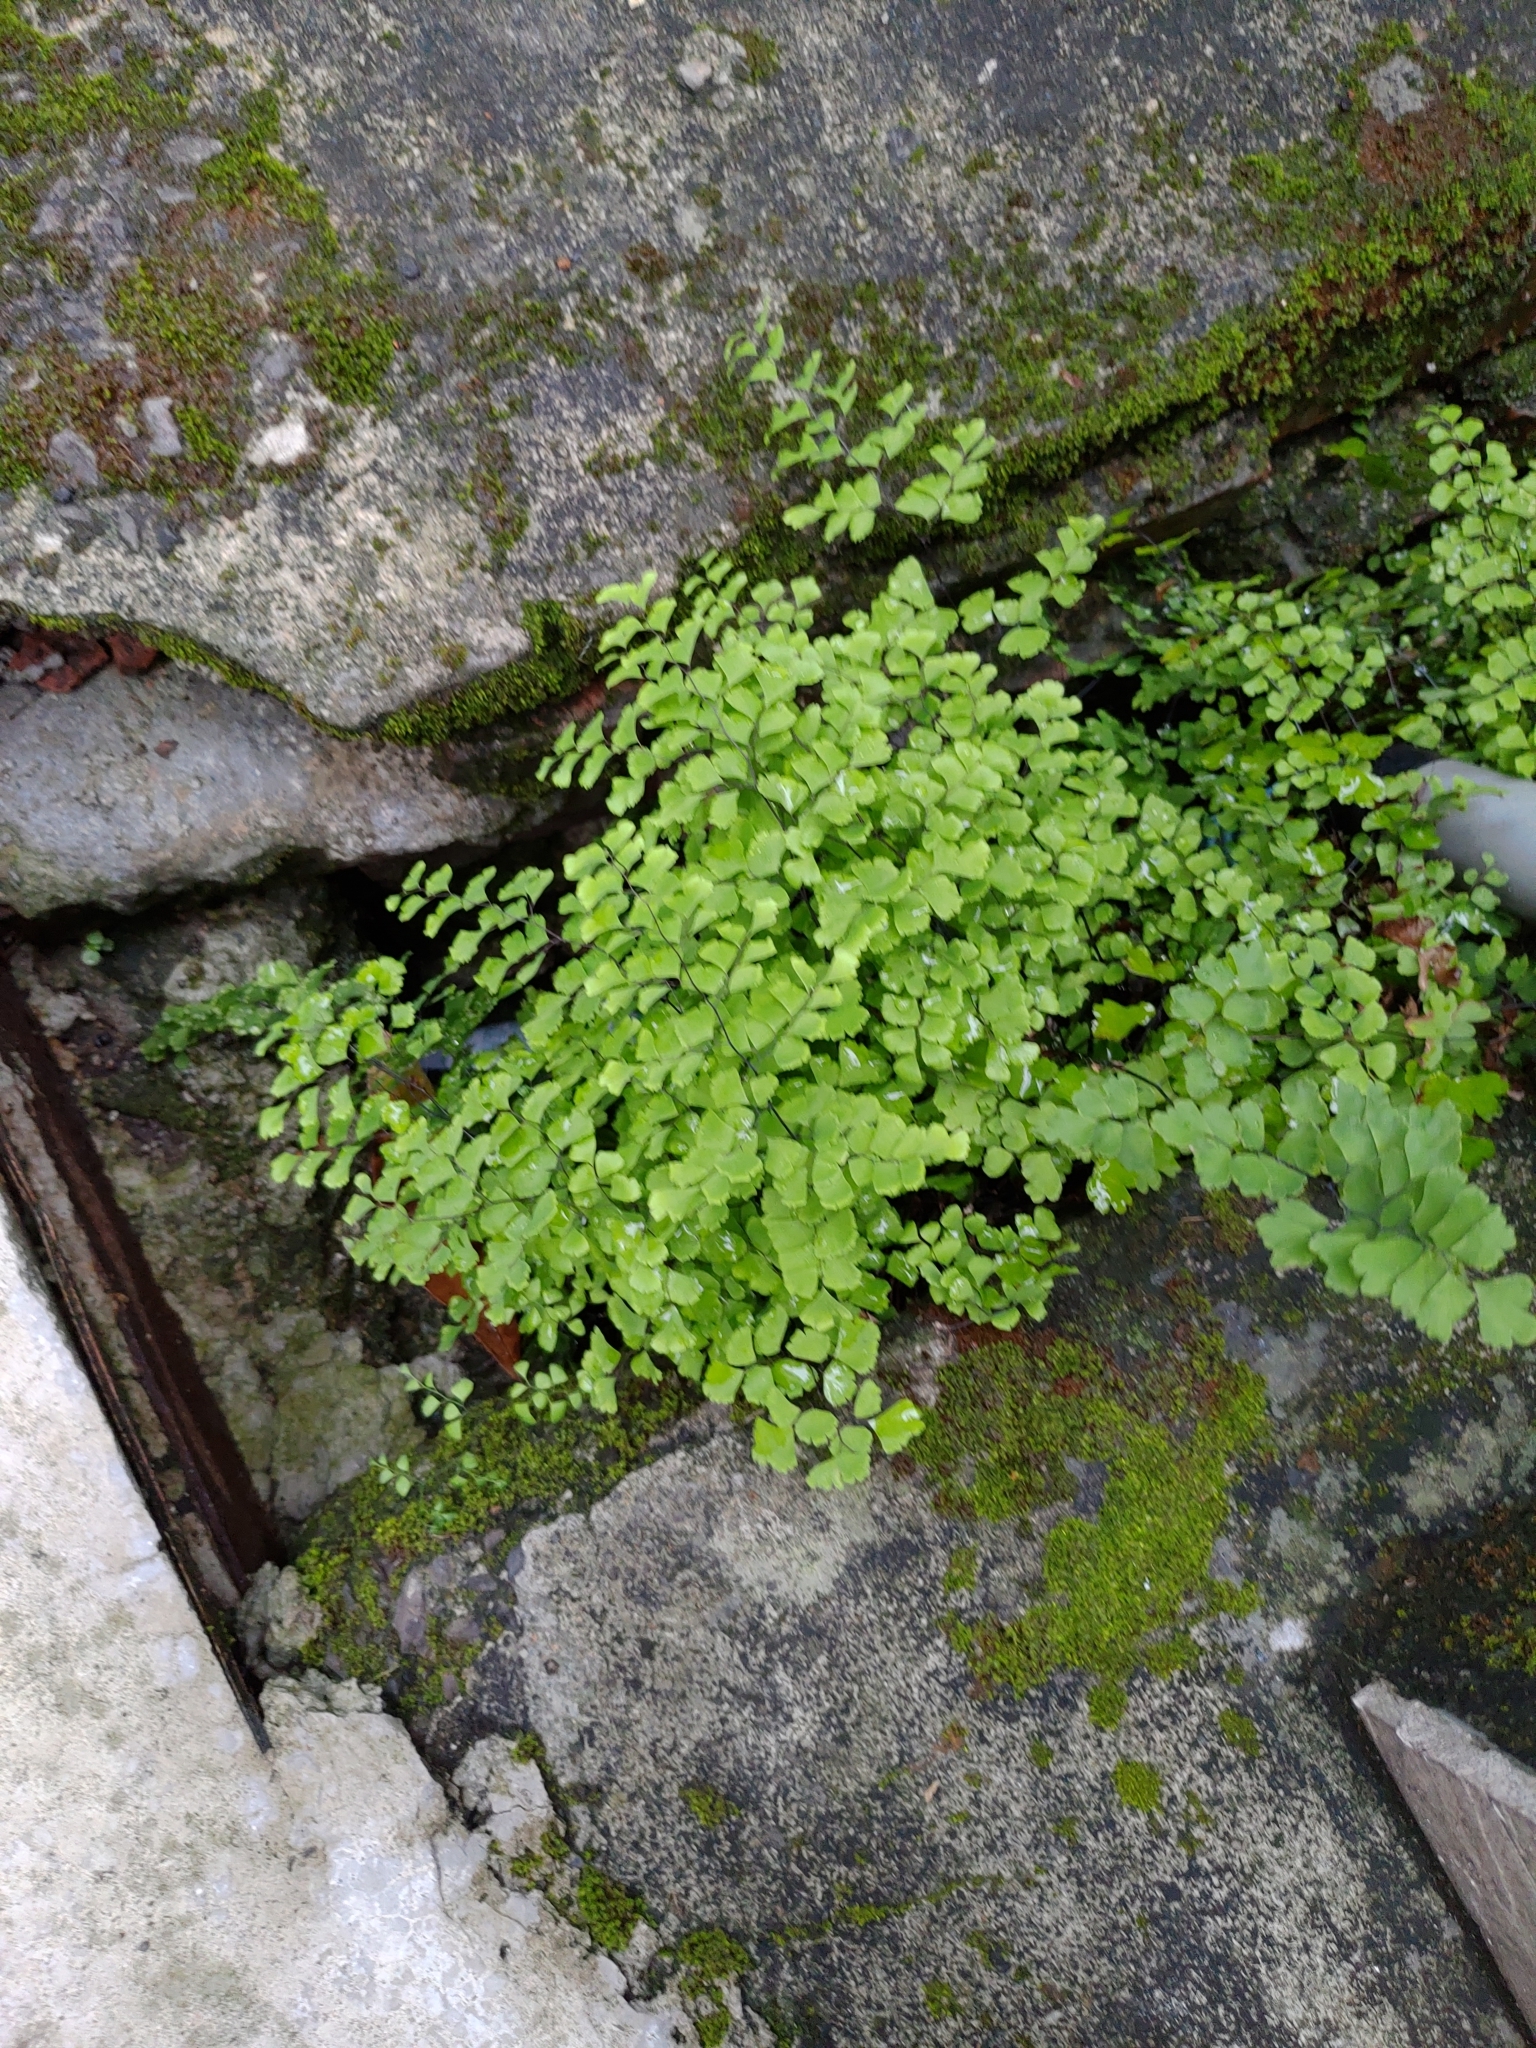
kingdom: Plantae
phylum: Tracheophyta
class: Polypodiopsida
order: Polypodiales
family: Pteridaceae
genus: Adiantum
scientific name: Adiantum capillus-veneris
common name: Maidenhair fern
